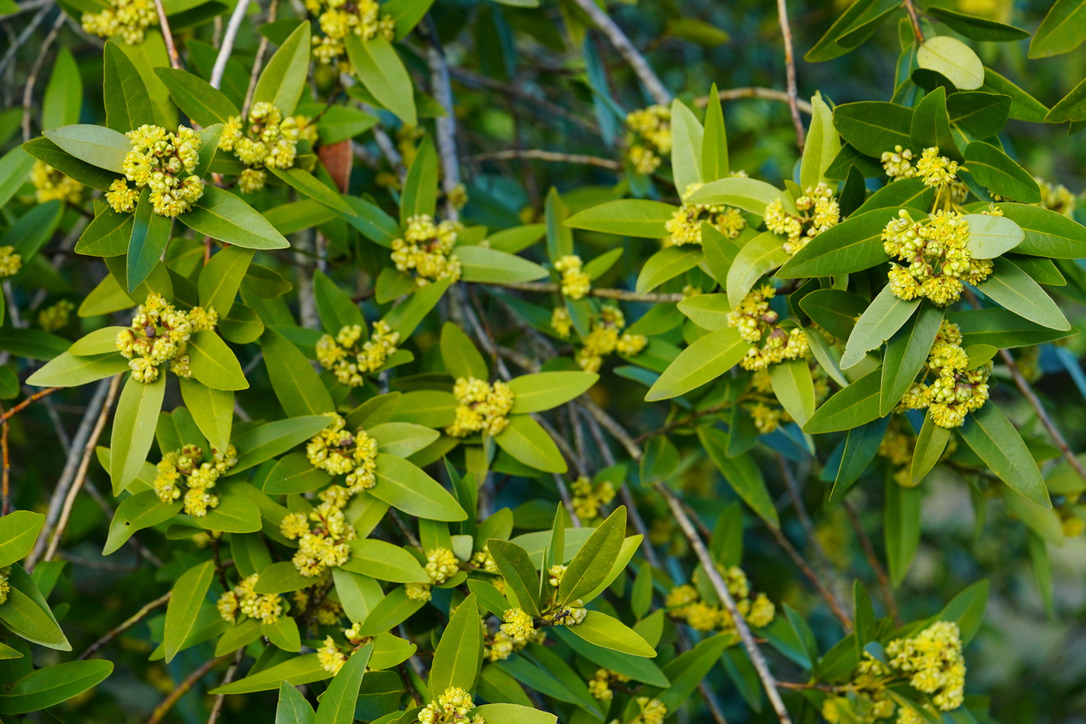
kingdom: Plantae
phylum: Tracheophyta
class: Magnoliopsida
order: Laurales
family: Lauraceae
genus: Umbellularia
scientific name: Umbellularia californica
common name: California bay
